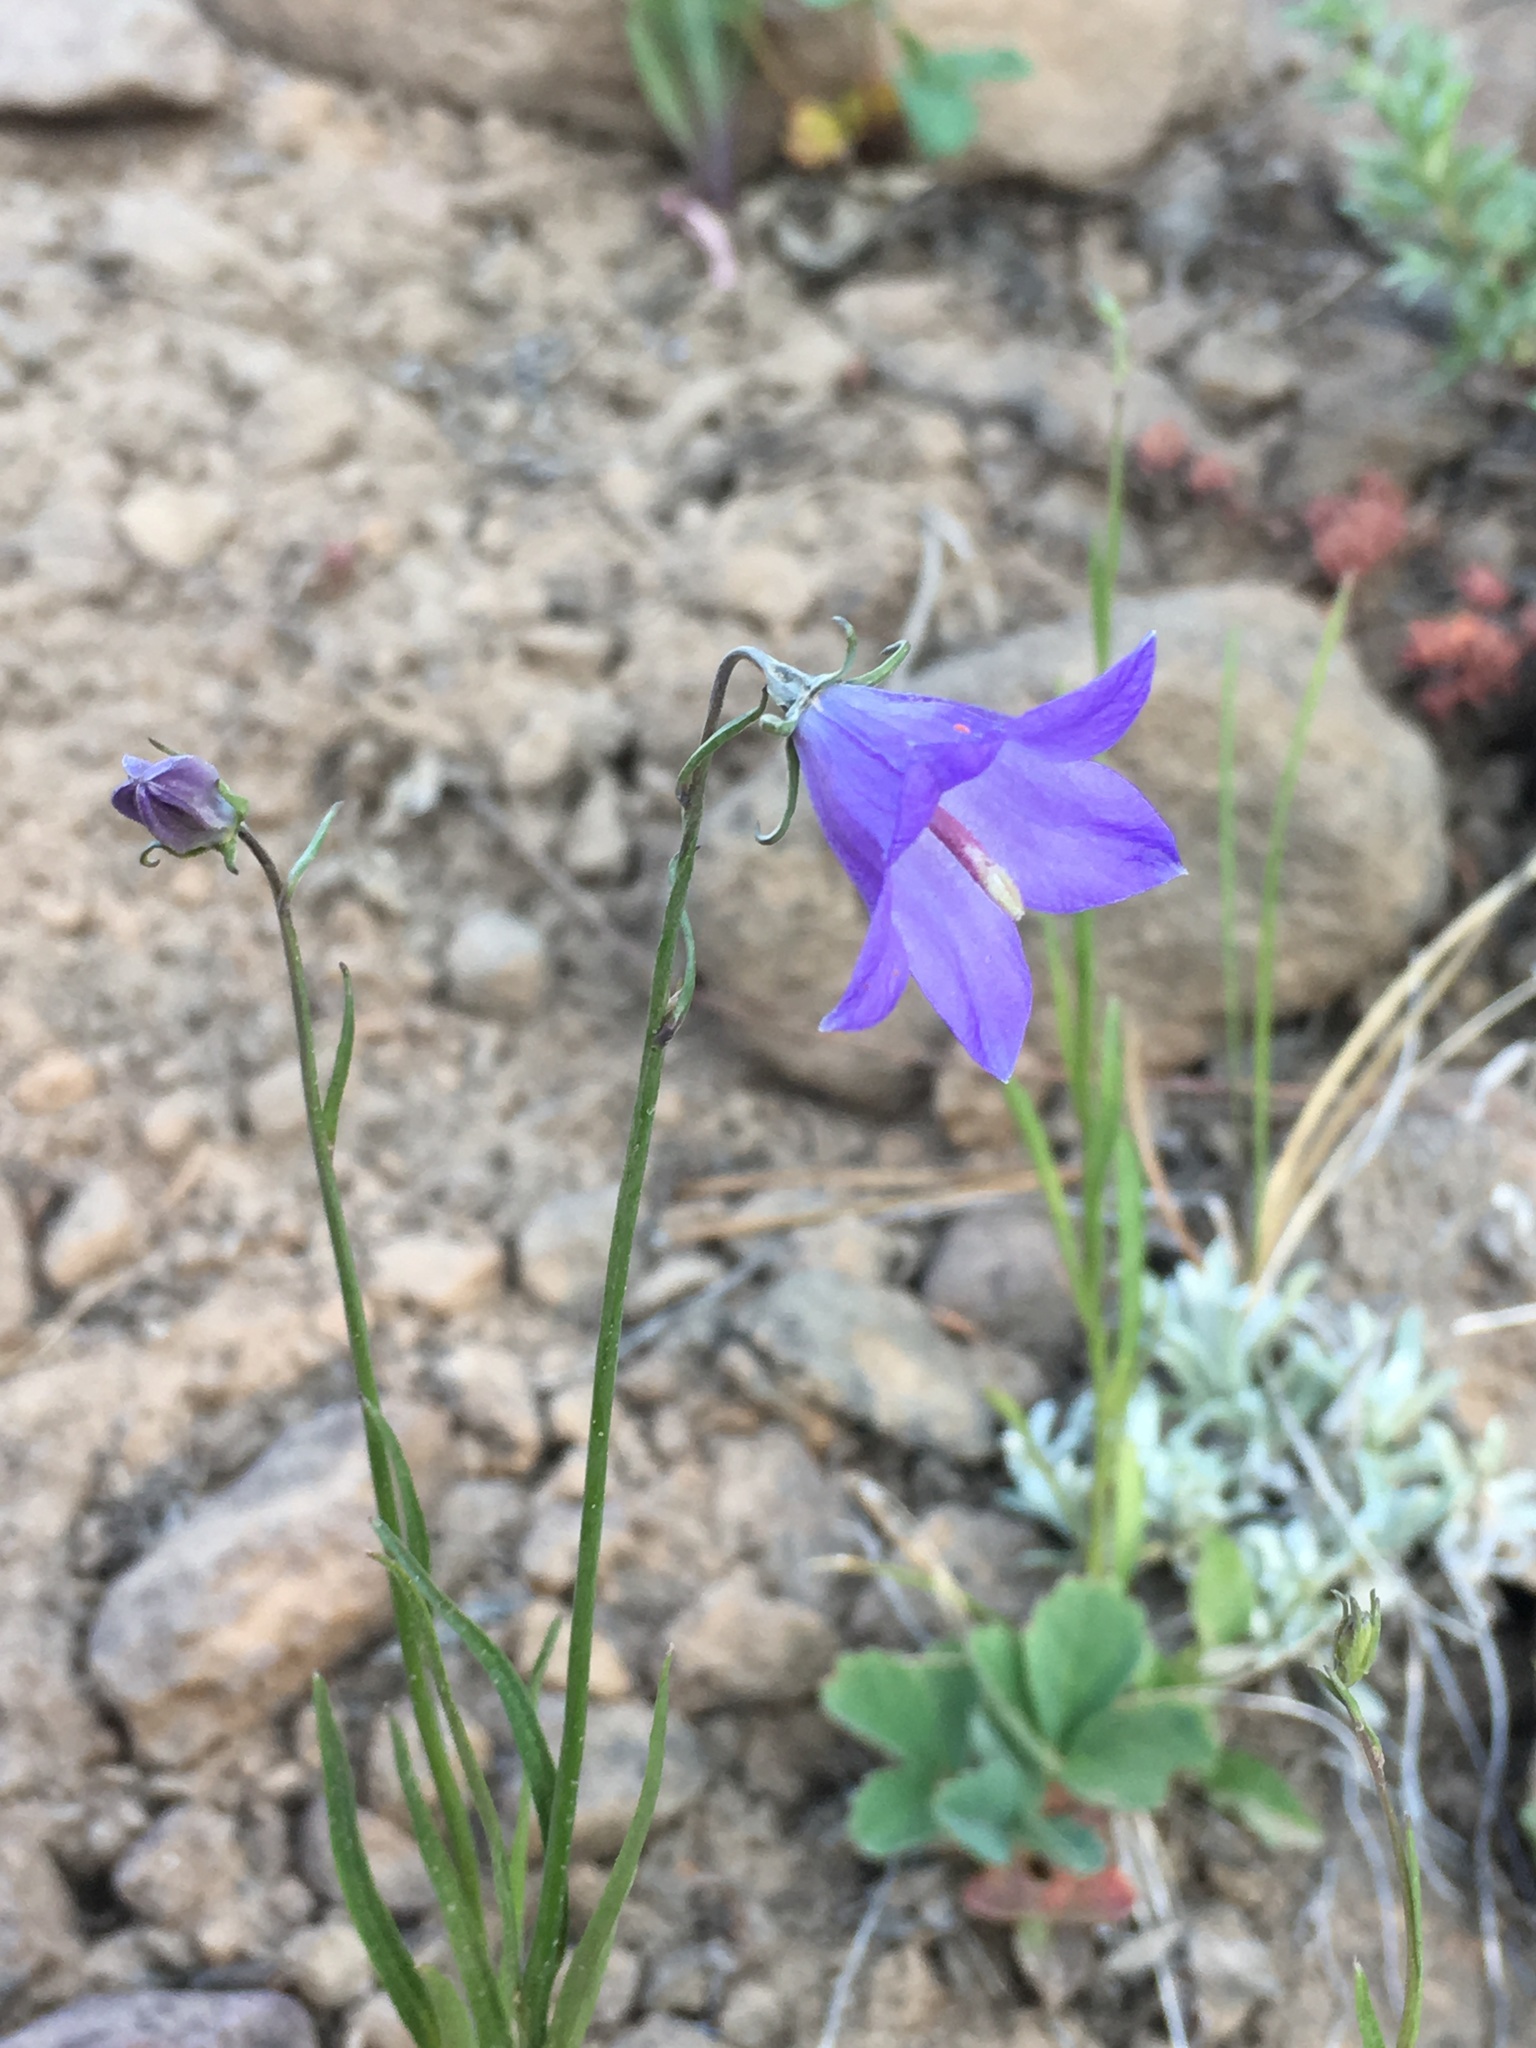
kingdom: Plantae
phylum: Tracheophyta
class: Magnoliopsida
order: Asterales
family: Campanulaceae
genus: Campanula
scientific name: Campanula petiolata
